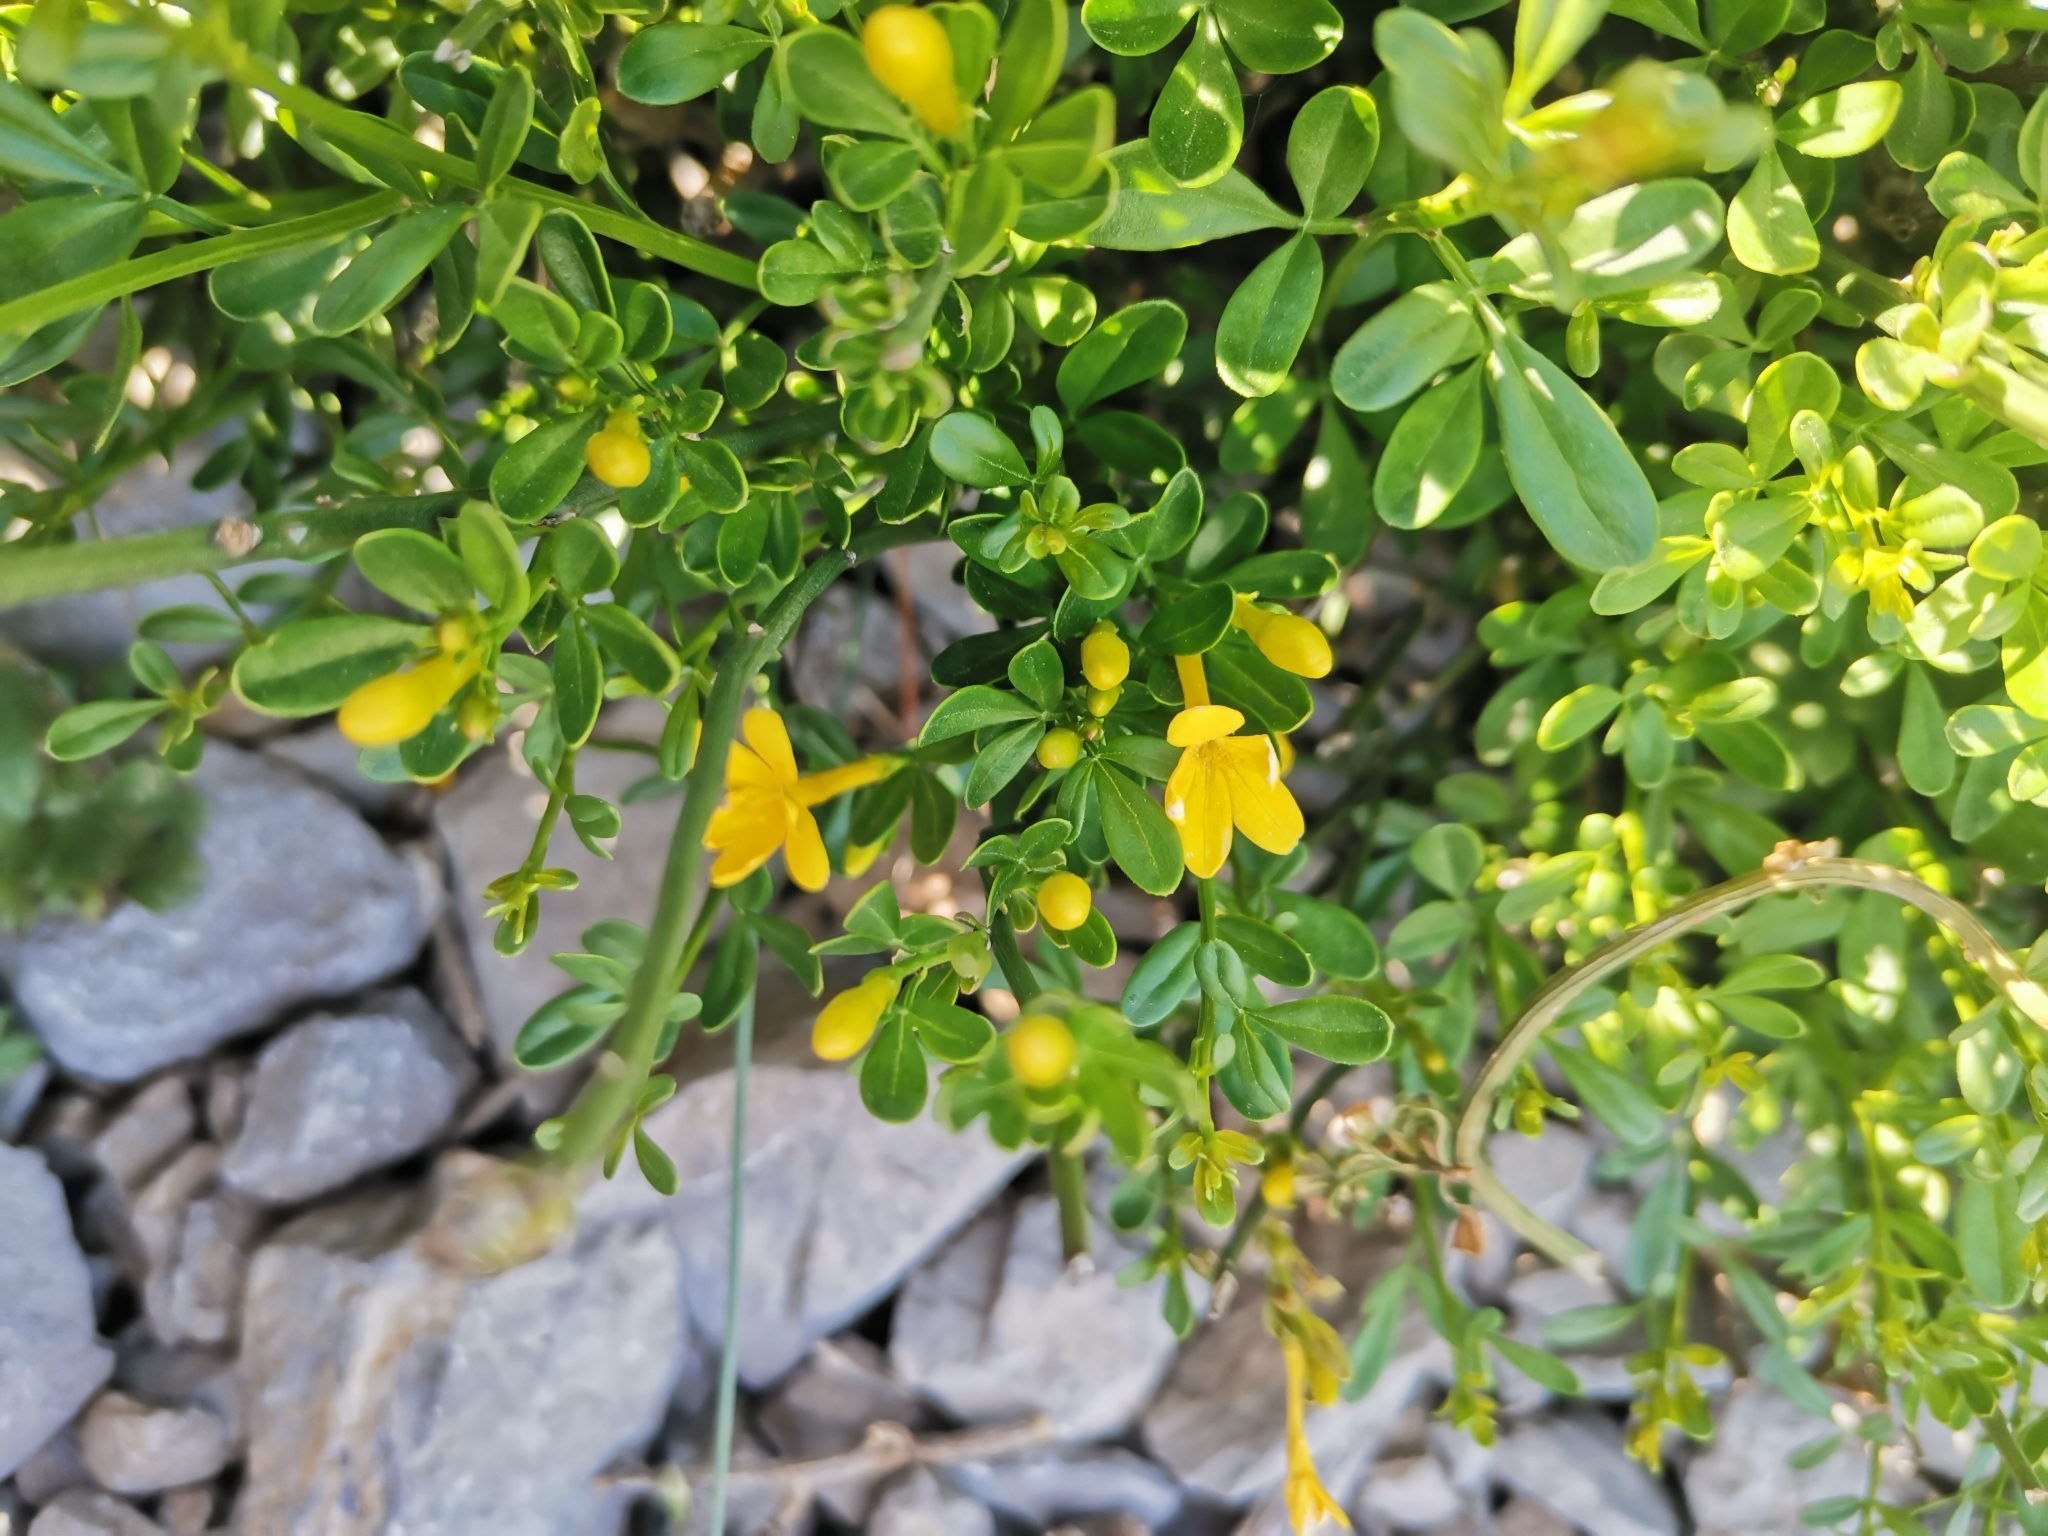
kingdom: Plantae
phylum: Tracheophyta
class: Magnoliopsida
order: Lamiales
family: Oleaceae
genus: Chrysojasminum
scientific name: Chrysojasminum fruticans
